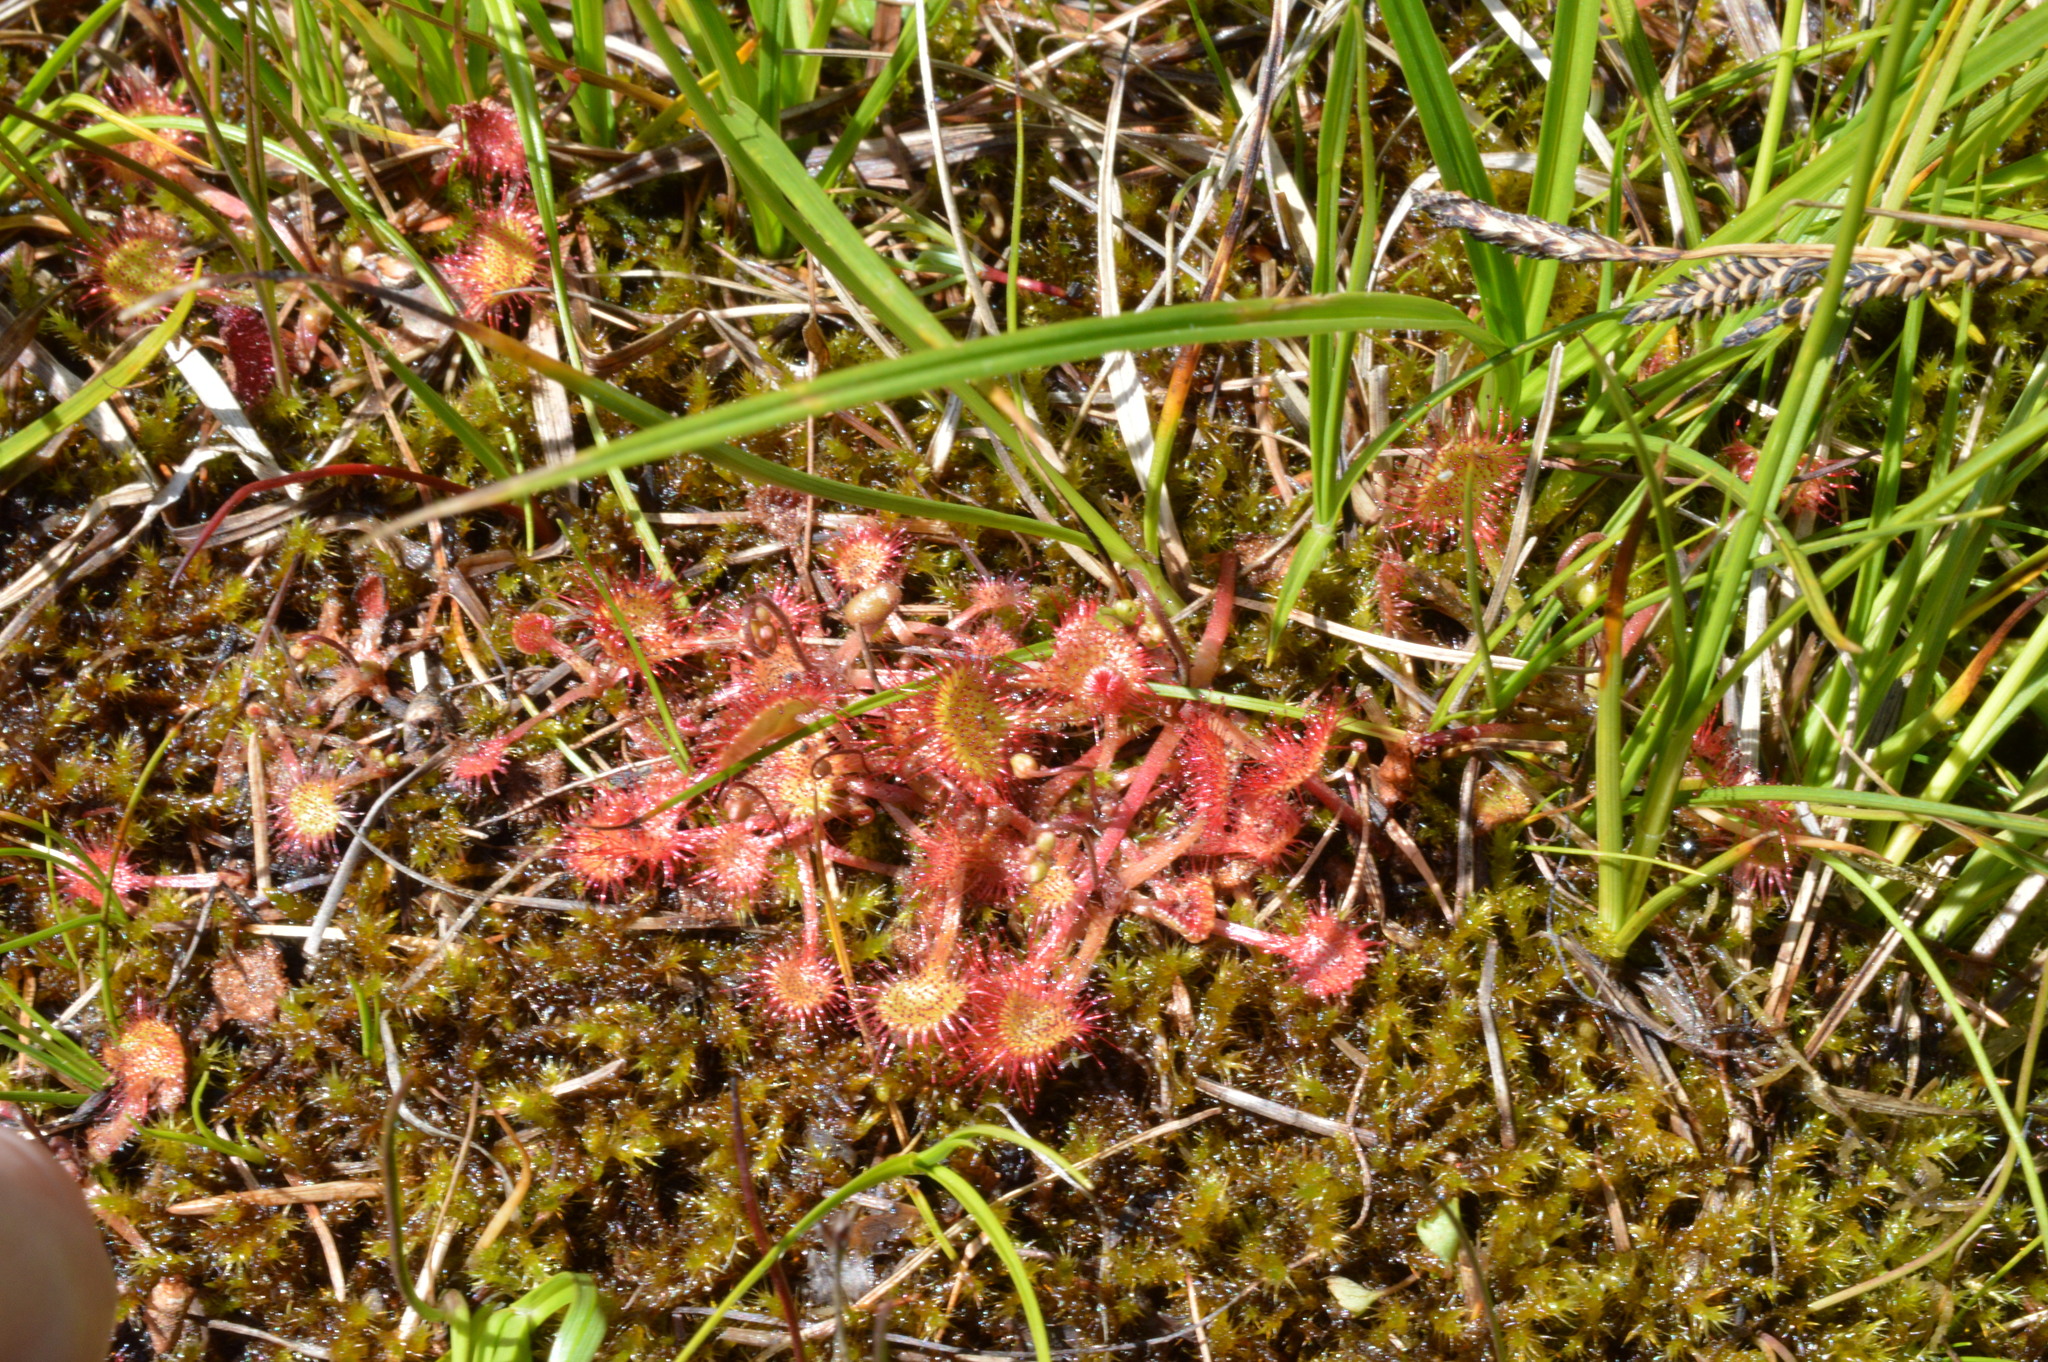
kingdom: Plantae
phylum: Tracheophyta
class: Magnoliopsida
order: Caryophyllales
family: Droseraceae
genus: Drosera
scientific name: Drosera rotundifolia
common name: Round-leaved sundew
